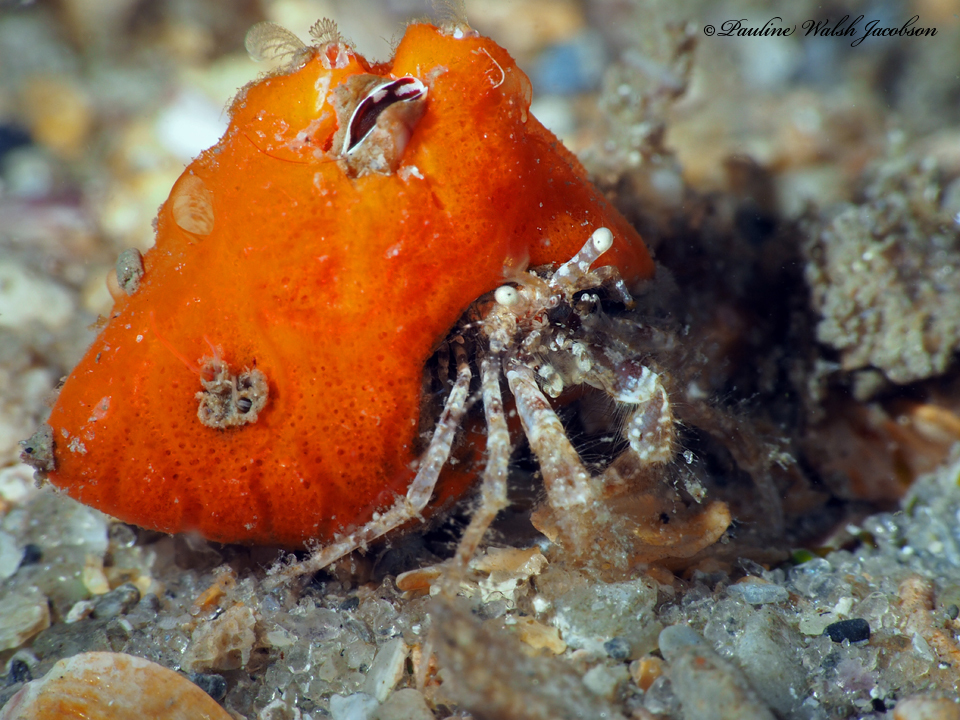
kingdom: Animalia
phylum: Arthropoda
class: Malacostraca
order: Decapoda
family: Paguridae
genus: Pagurus
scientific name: Pagurus maclaughlinae
